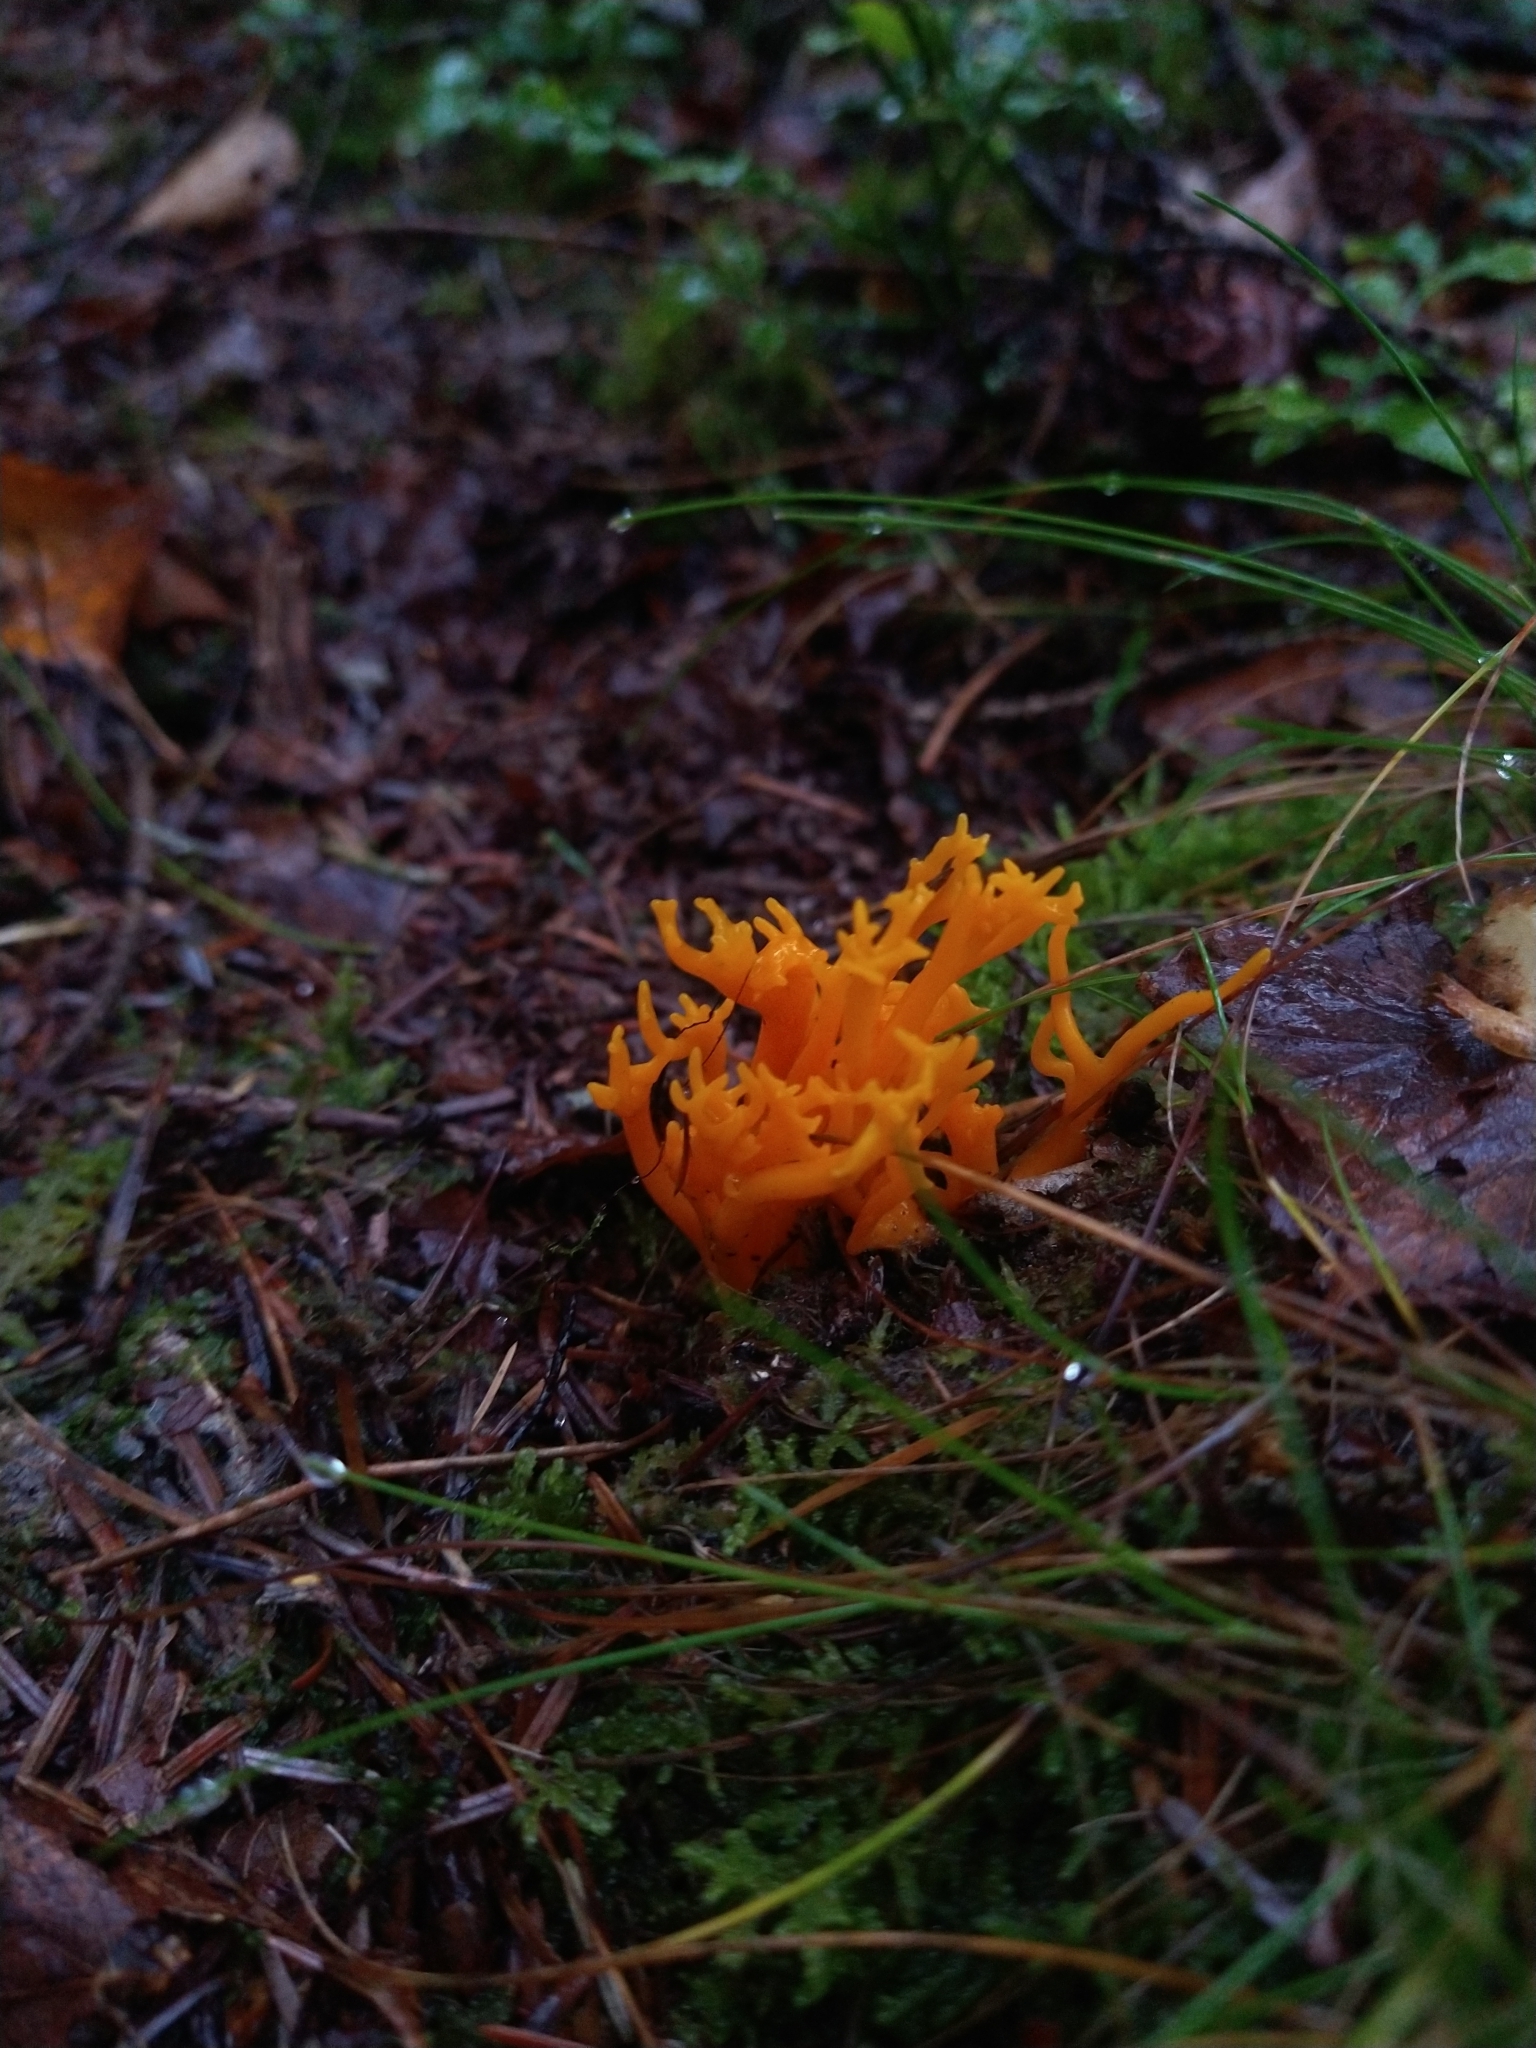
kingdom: Fungi
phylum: Basidiomycota
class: Dacrymycetes
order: Dacrymycetales
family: Dacrymycetaceae
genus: Calocera
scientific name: Calocera viscosa
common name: Yellow stagshorn
